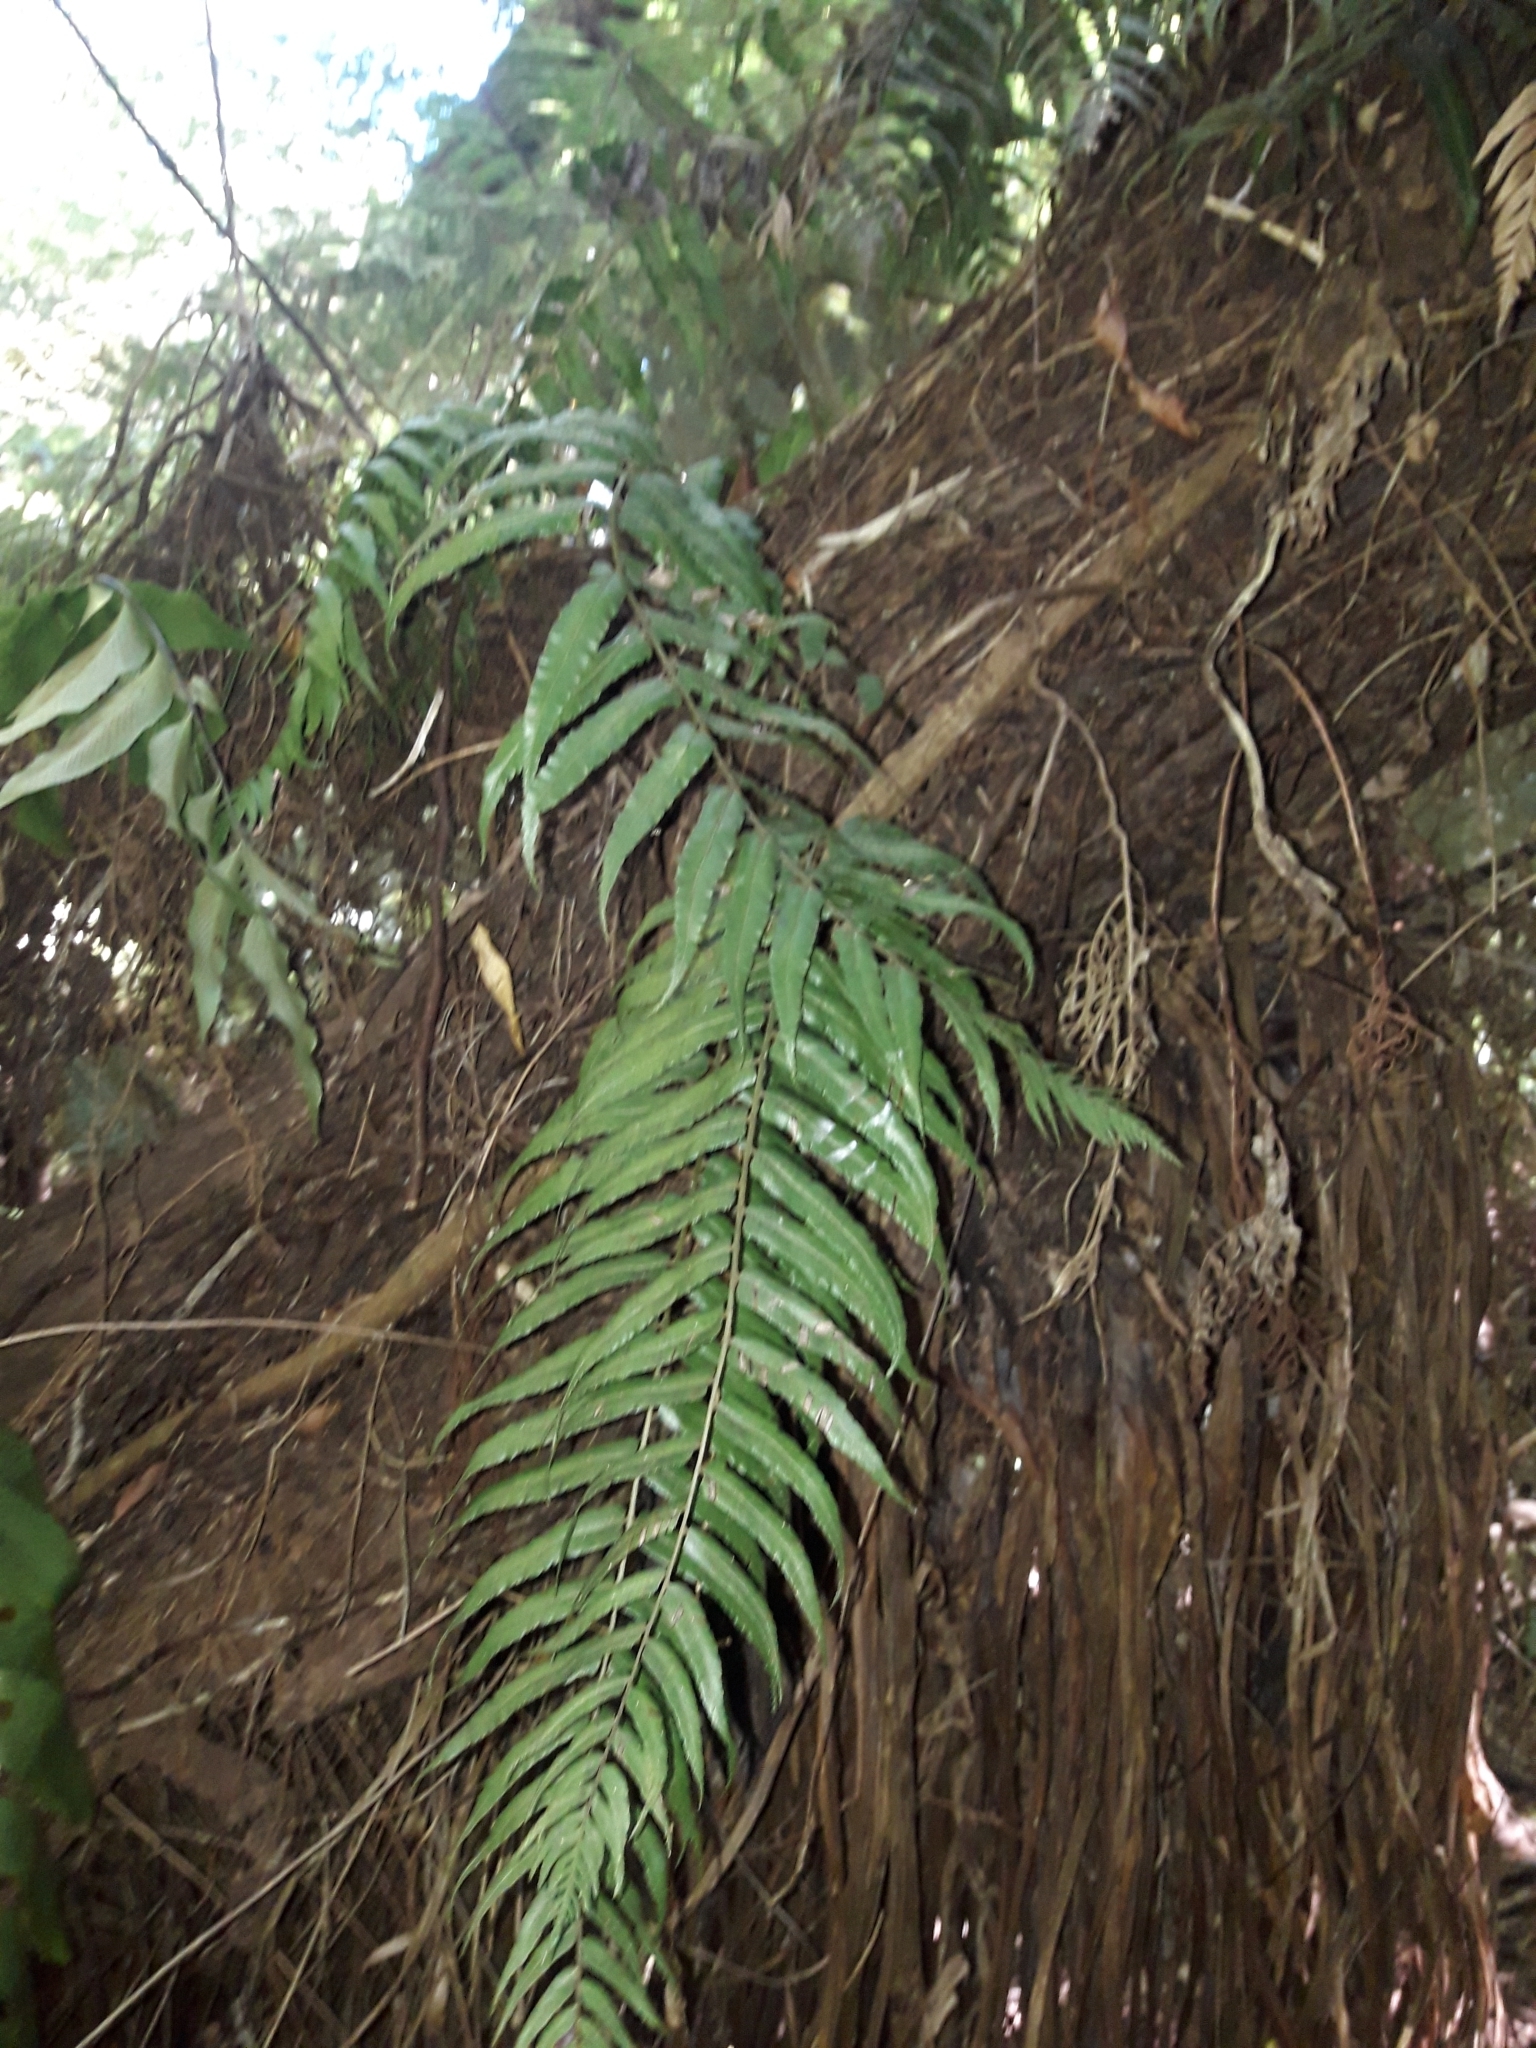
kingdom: Plantae
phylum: Tracheophyta
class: Polypodiopsida
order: Polypodiales
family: Blechnaceae
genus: Icarus
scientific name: Icarus filiformis
